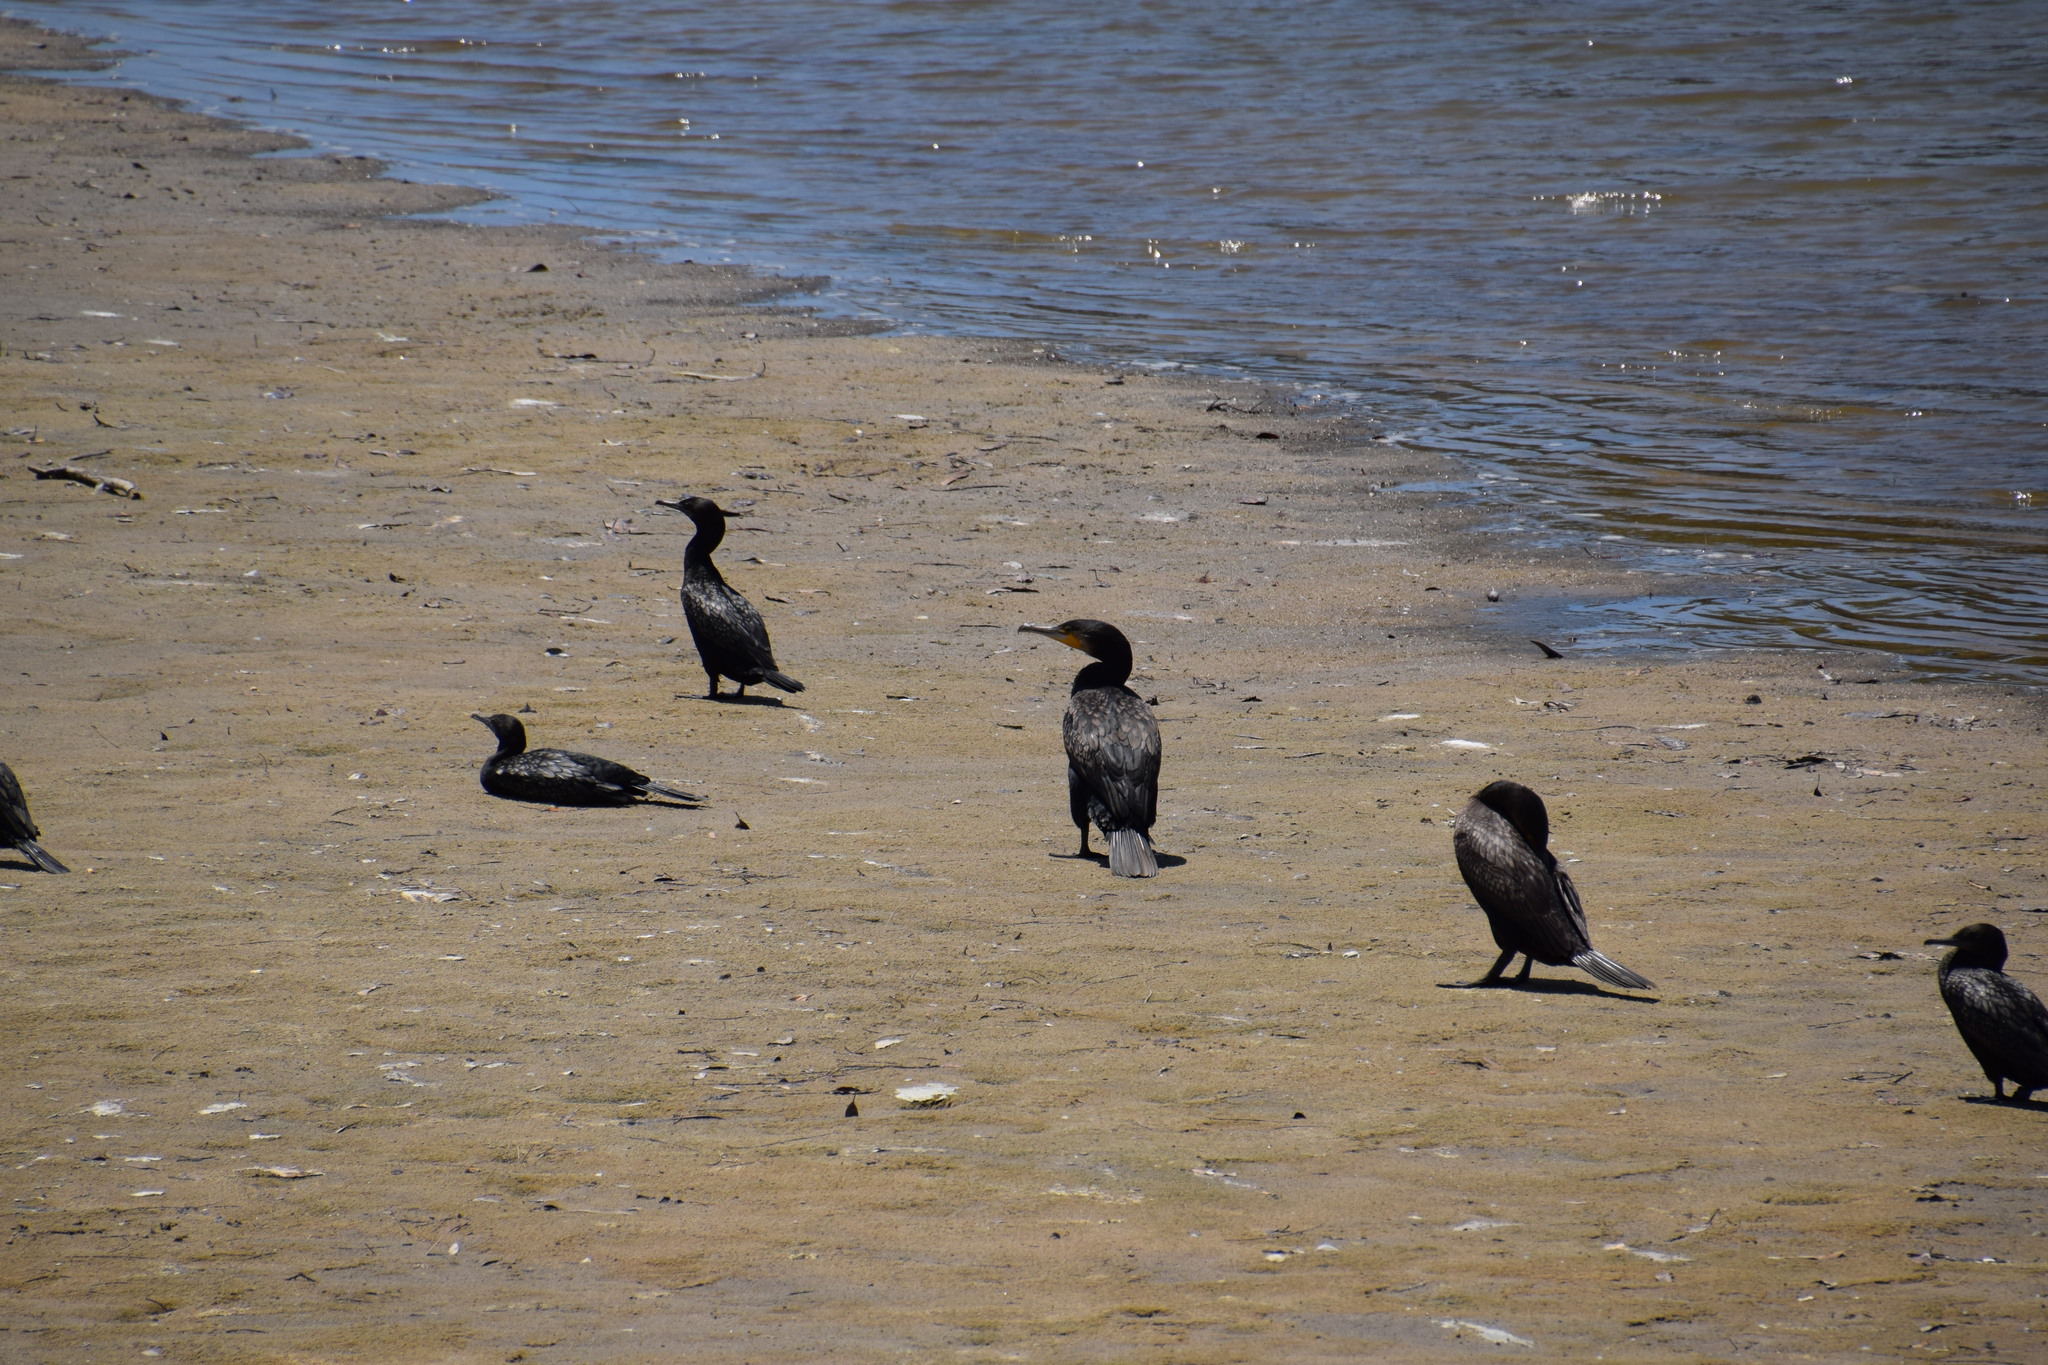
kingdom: Animalia
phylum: Chordata
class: Aves
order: Suliformes
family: Phalacrocoracidae
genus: Phalacrocorax
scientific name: Phalacrocorax carbo
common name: Great cormorant
